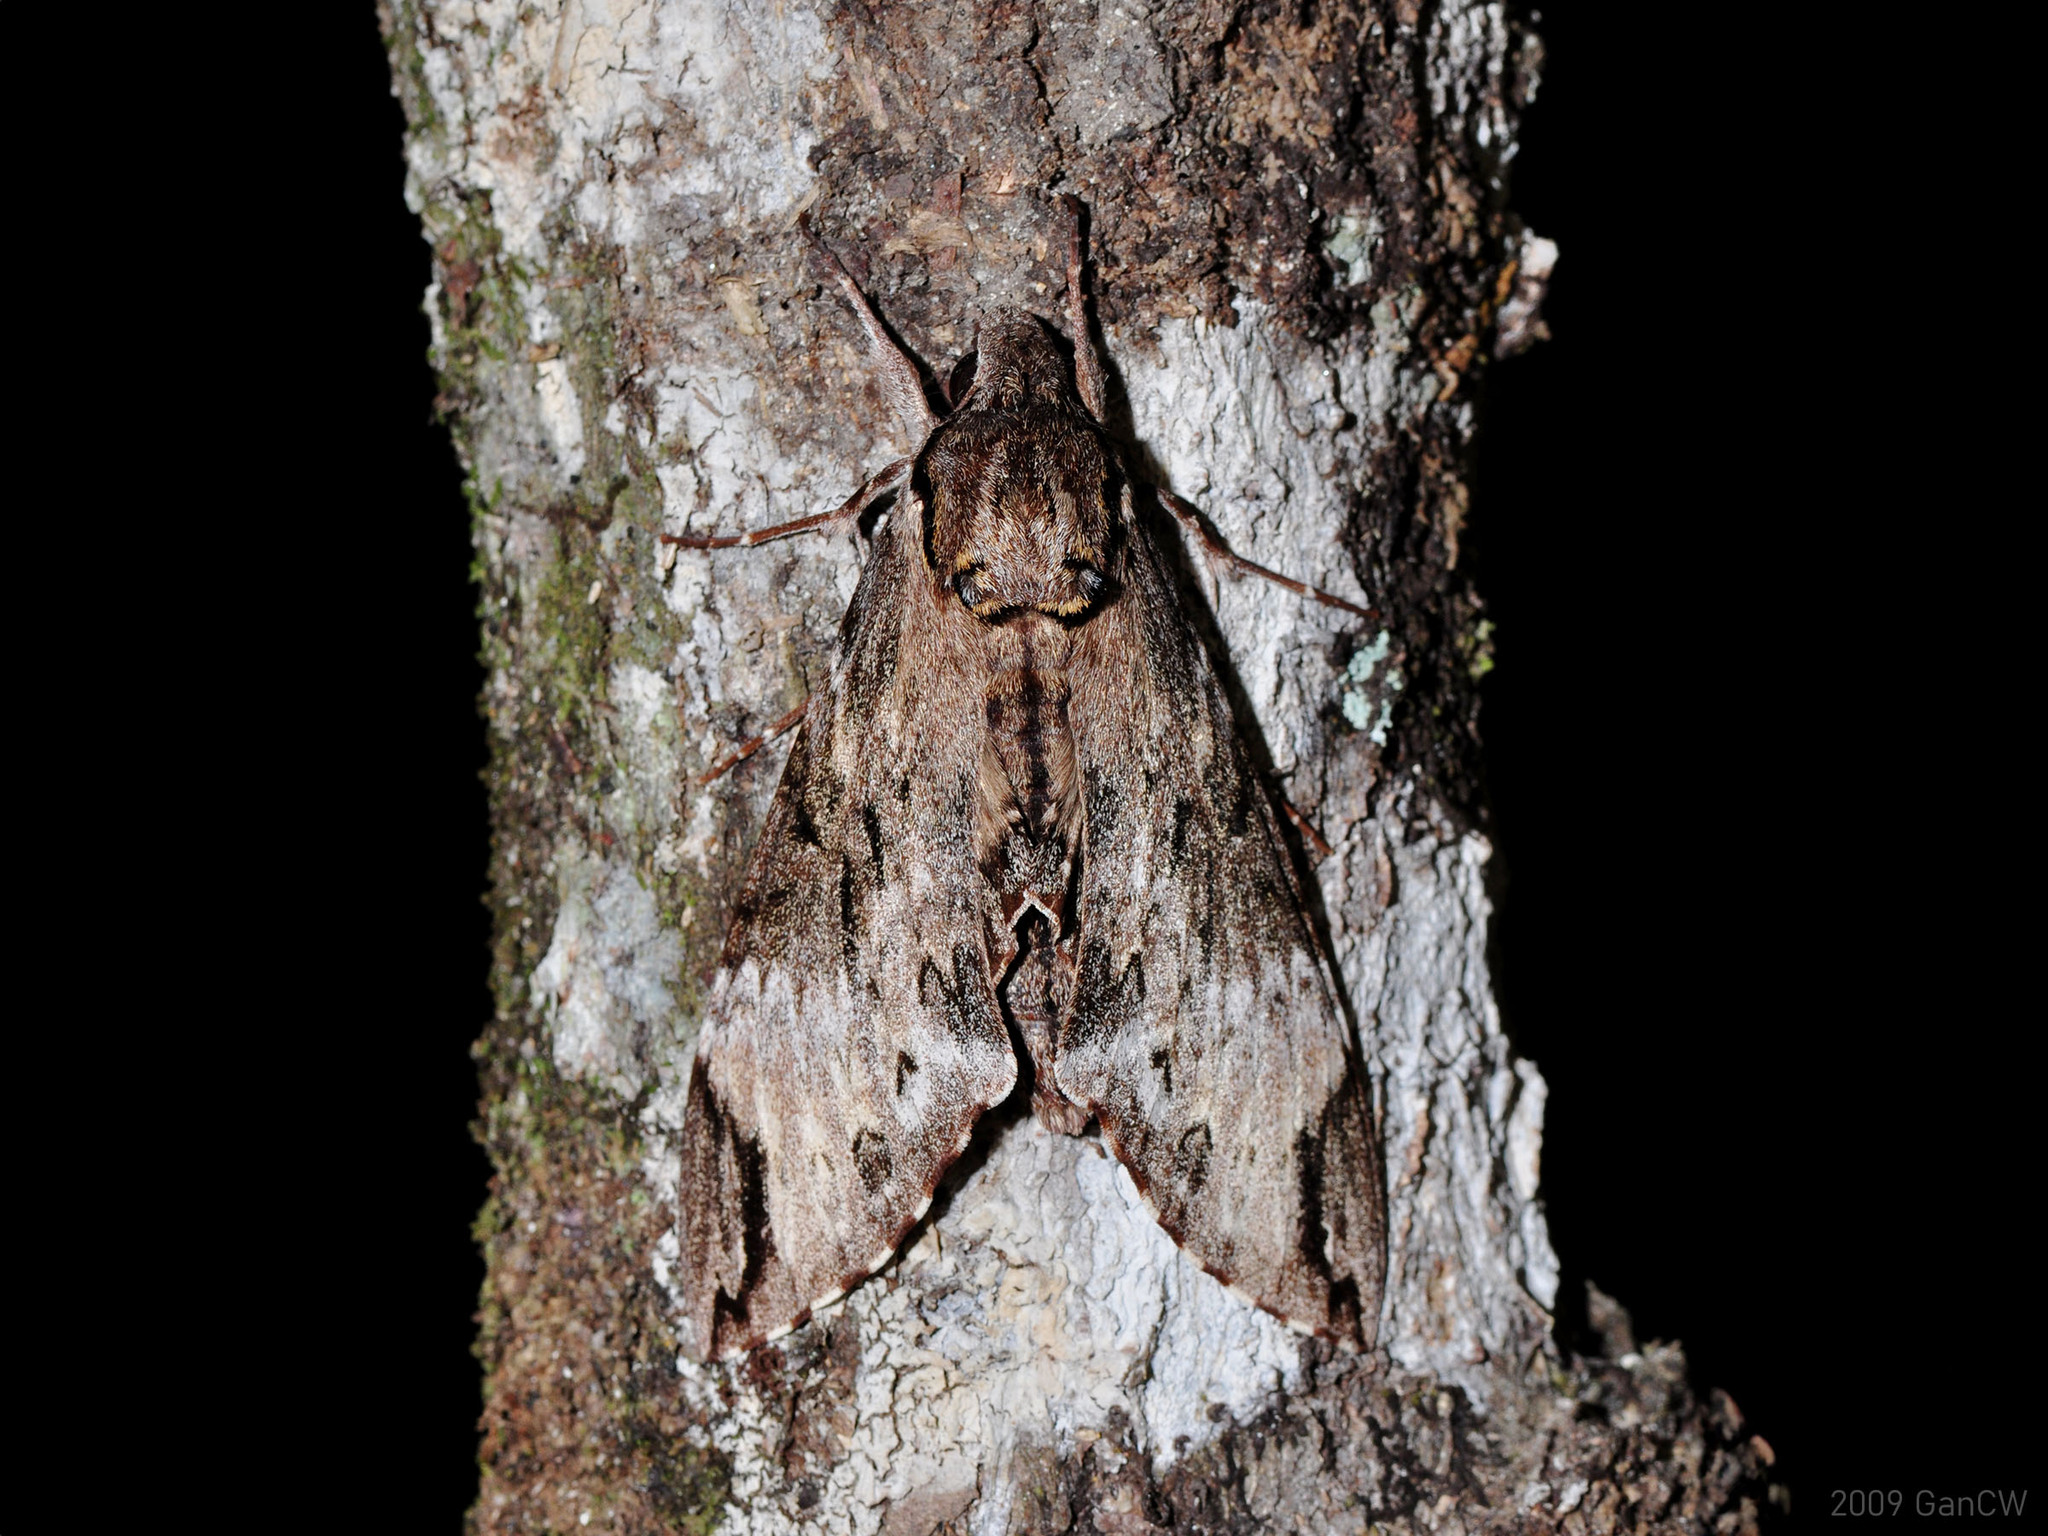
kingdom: Animalia
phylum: Arthropoda
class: Insecta
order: Lepidoptera
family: Sphingidae
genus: Psilogramma
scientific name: Psilogramma menephron
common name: Gray hawk moth
